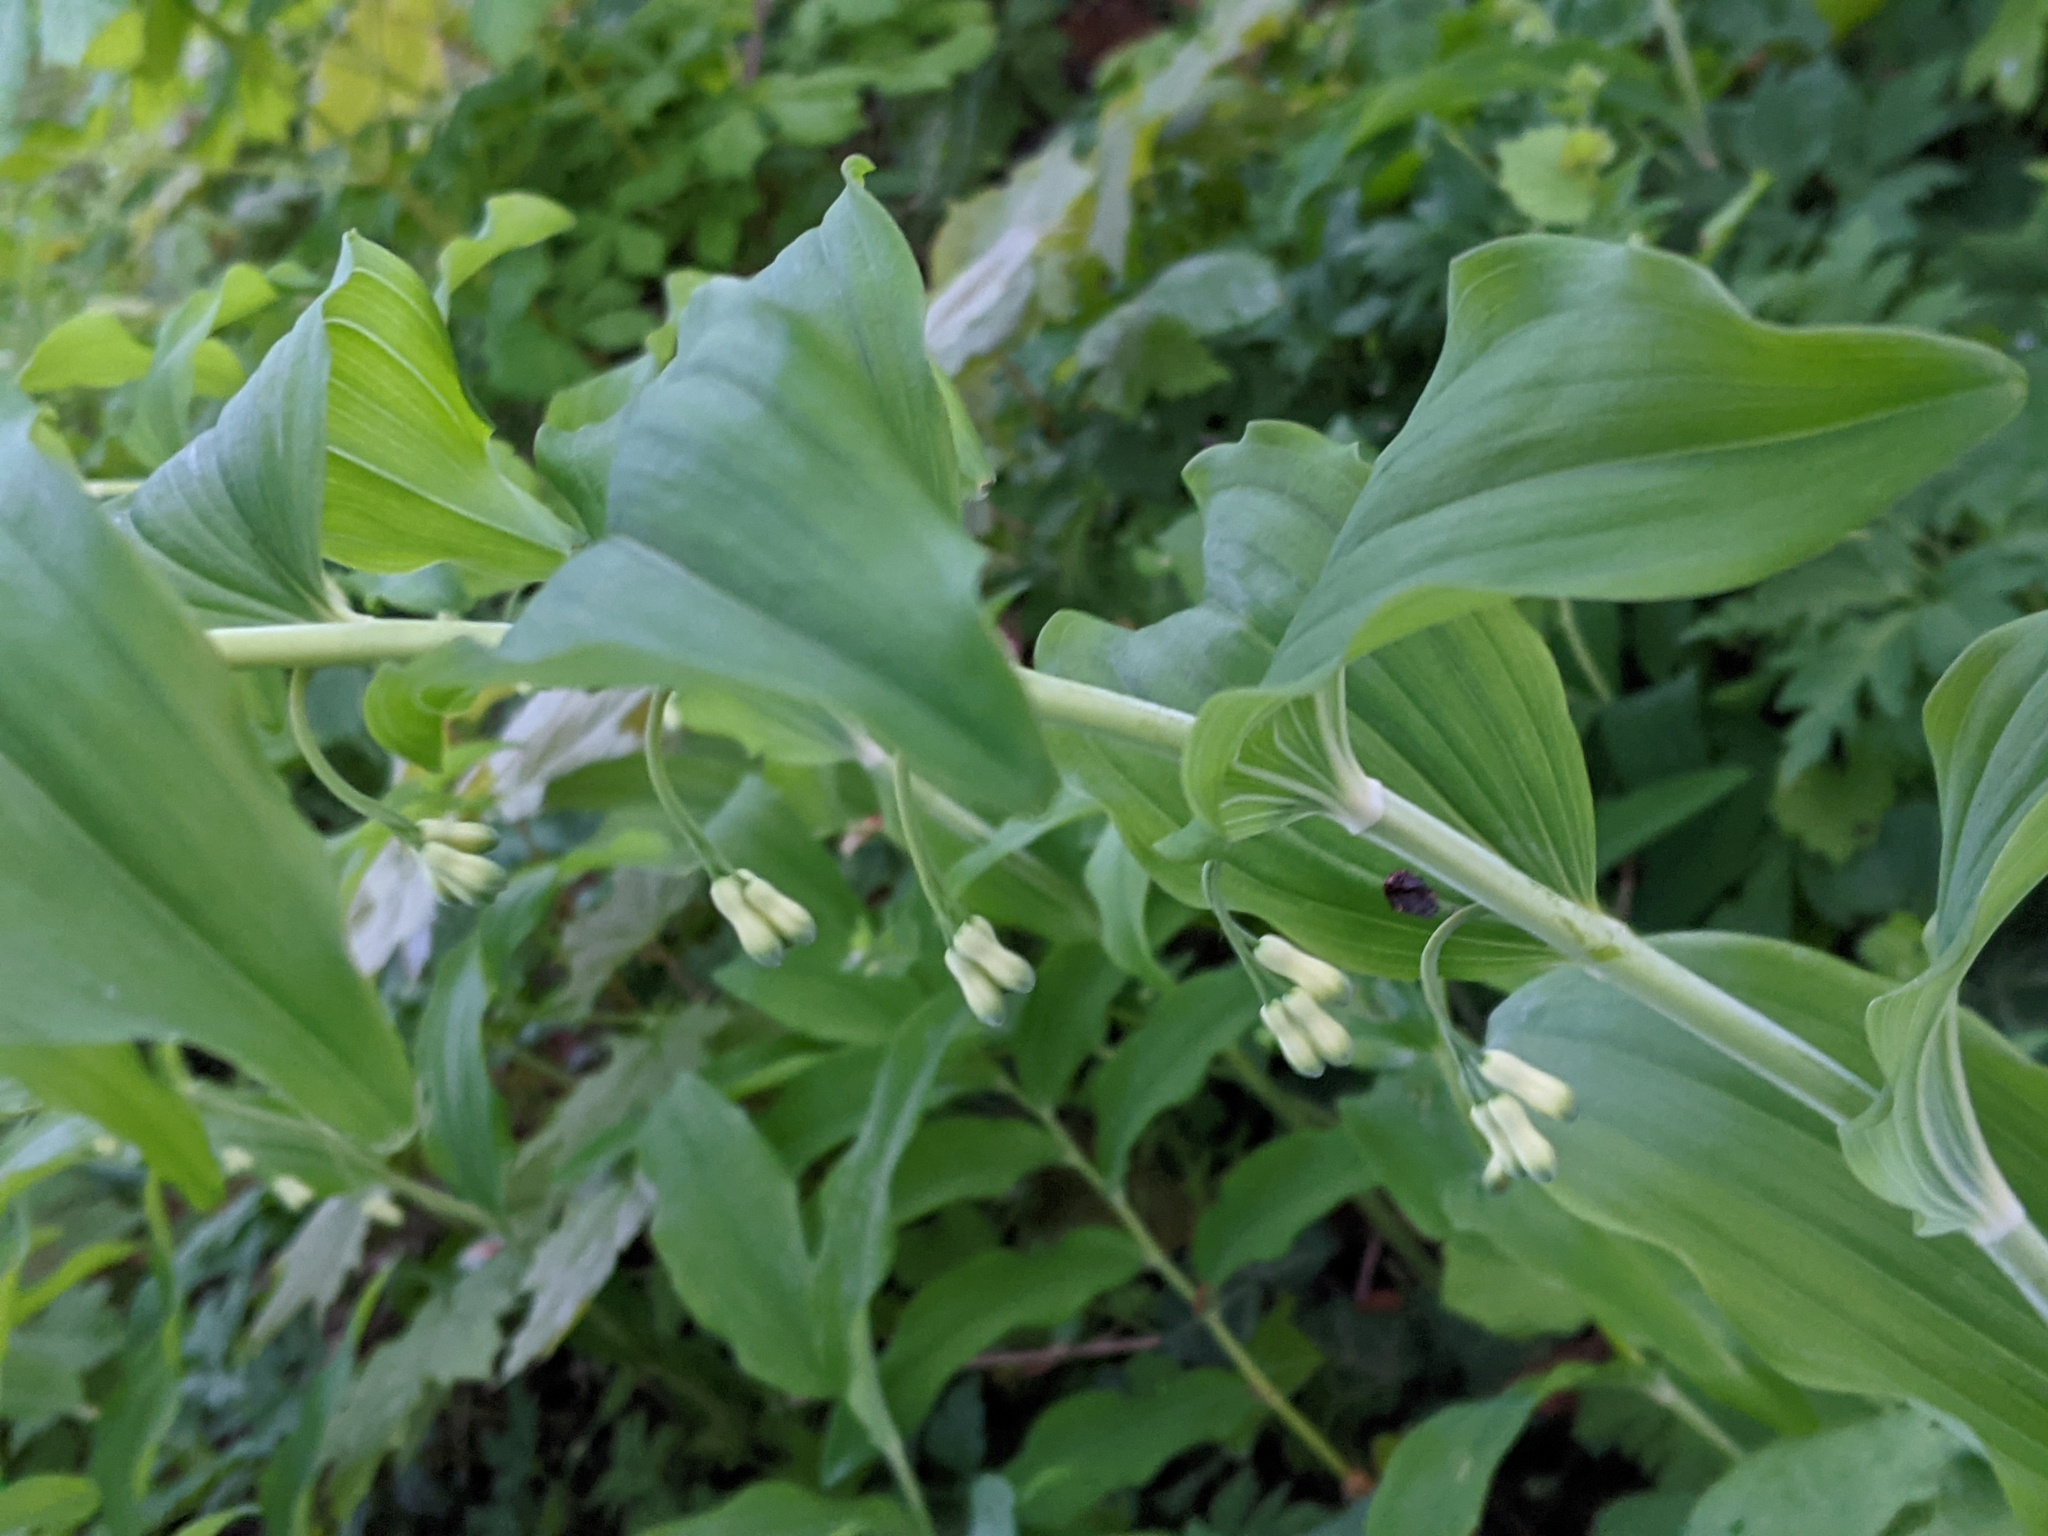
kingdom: Plantae
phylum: Tracheophyta
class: Liliopsida
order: Asparagales
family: Asparagaceae
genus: Polygonatum
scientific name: Polygonatum multiflorum
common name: Solomon's-seal
